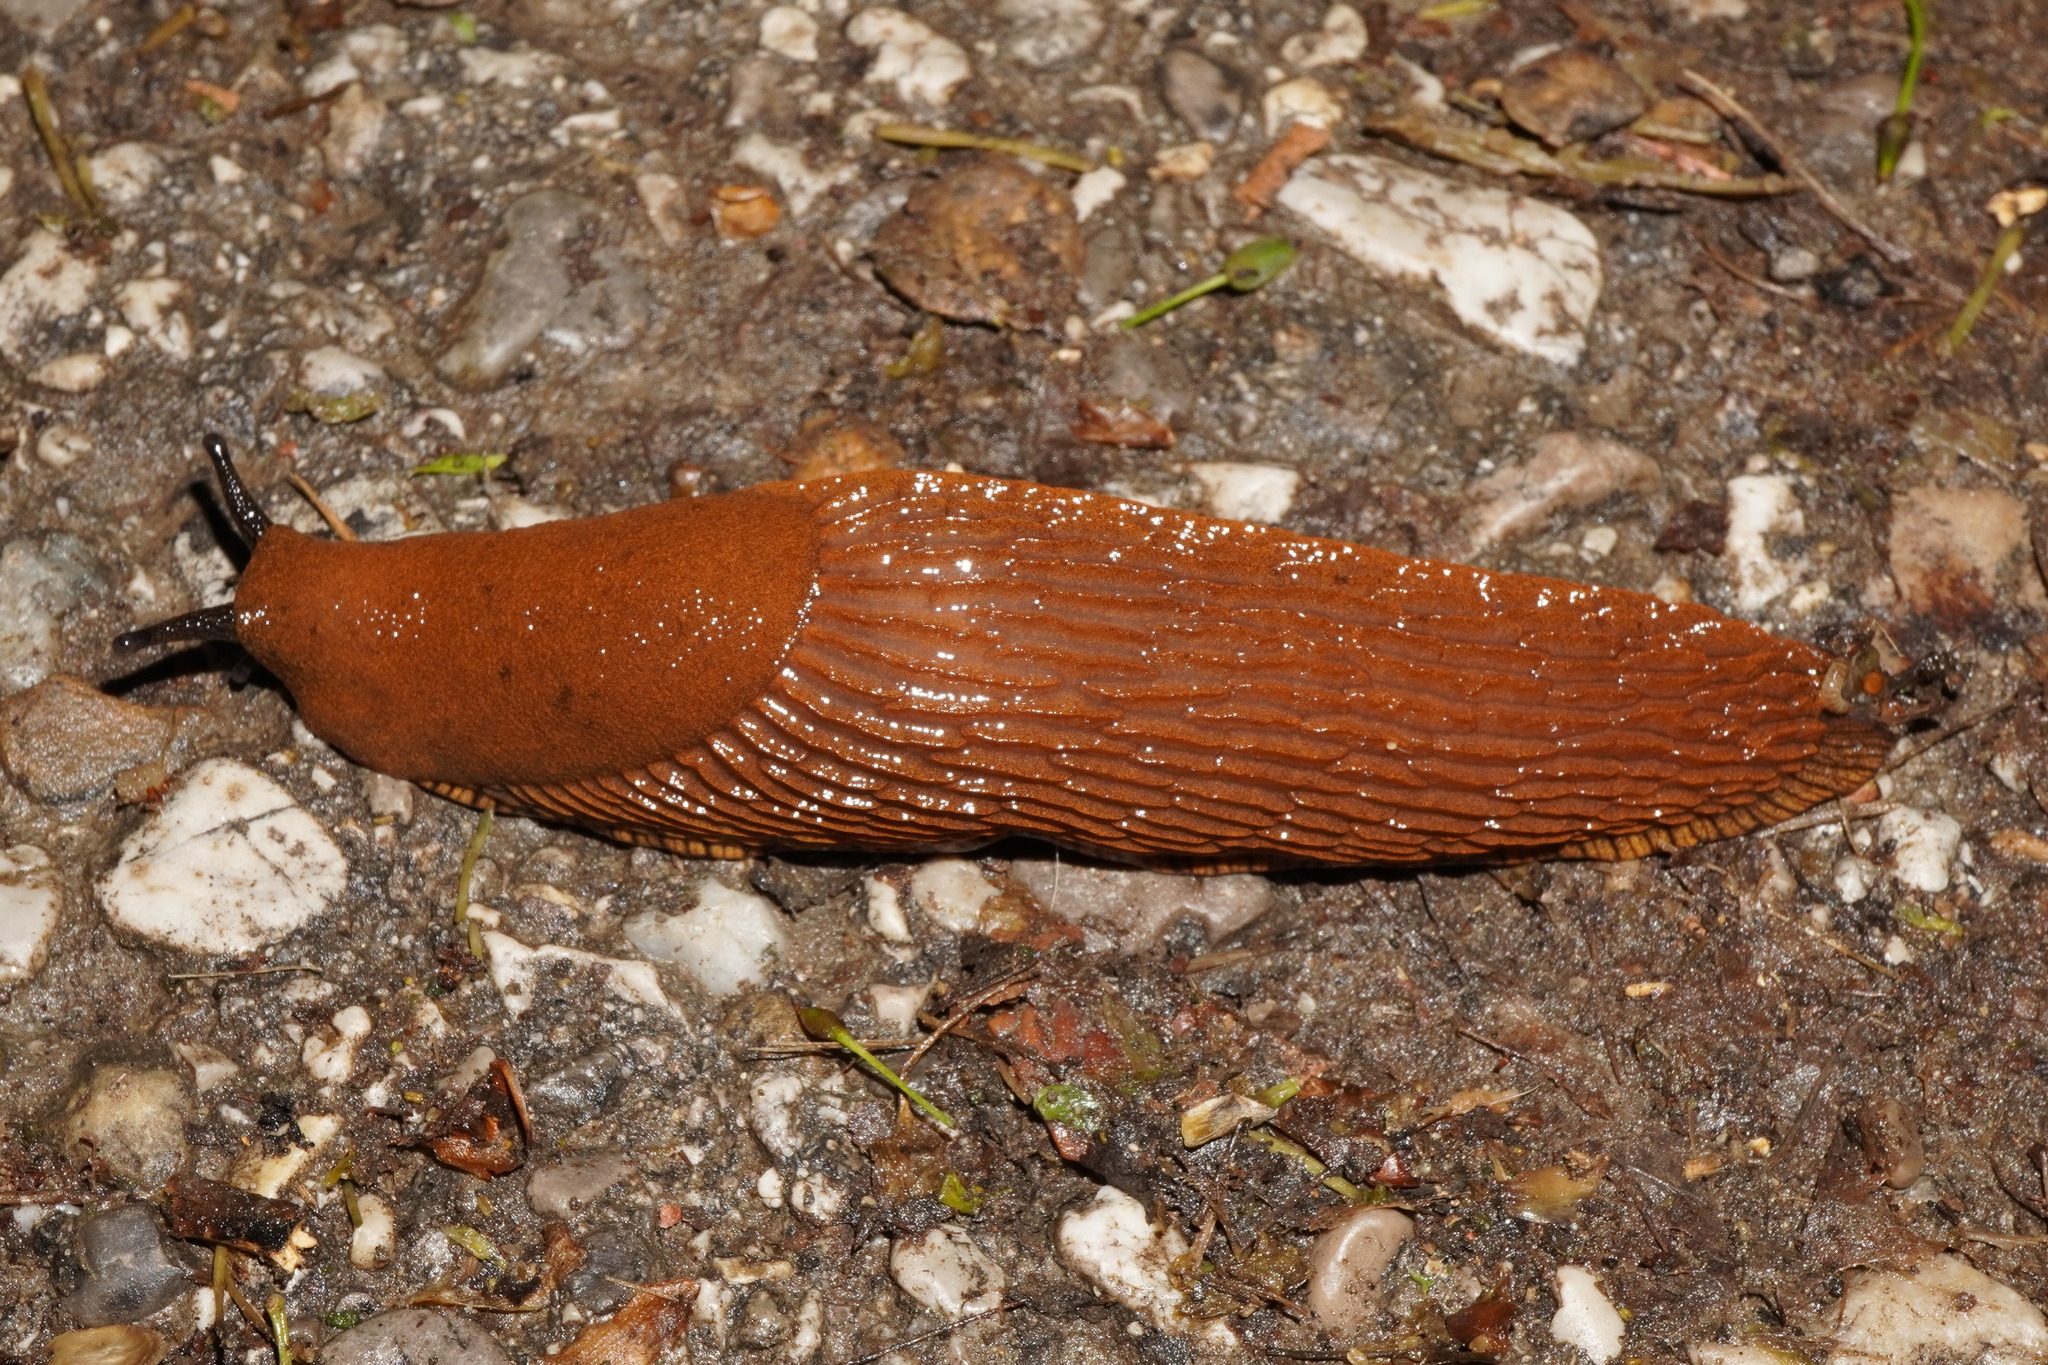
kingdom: Animalia
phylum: Mollusca
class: Gastropoda
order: Stylommatophora
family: Arionidae
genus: Arion
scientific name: Arion vulgaris
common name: Lusitanian slug
